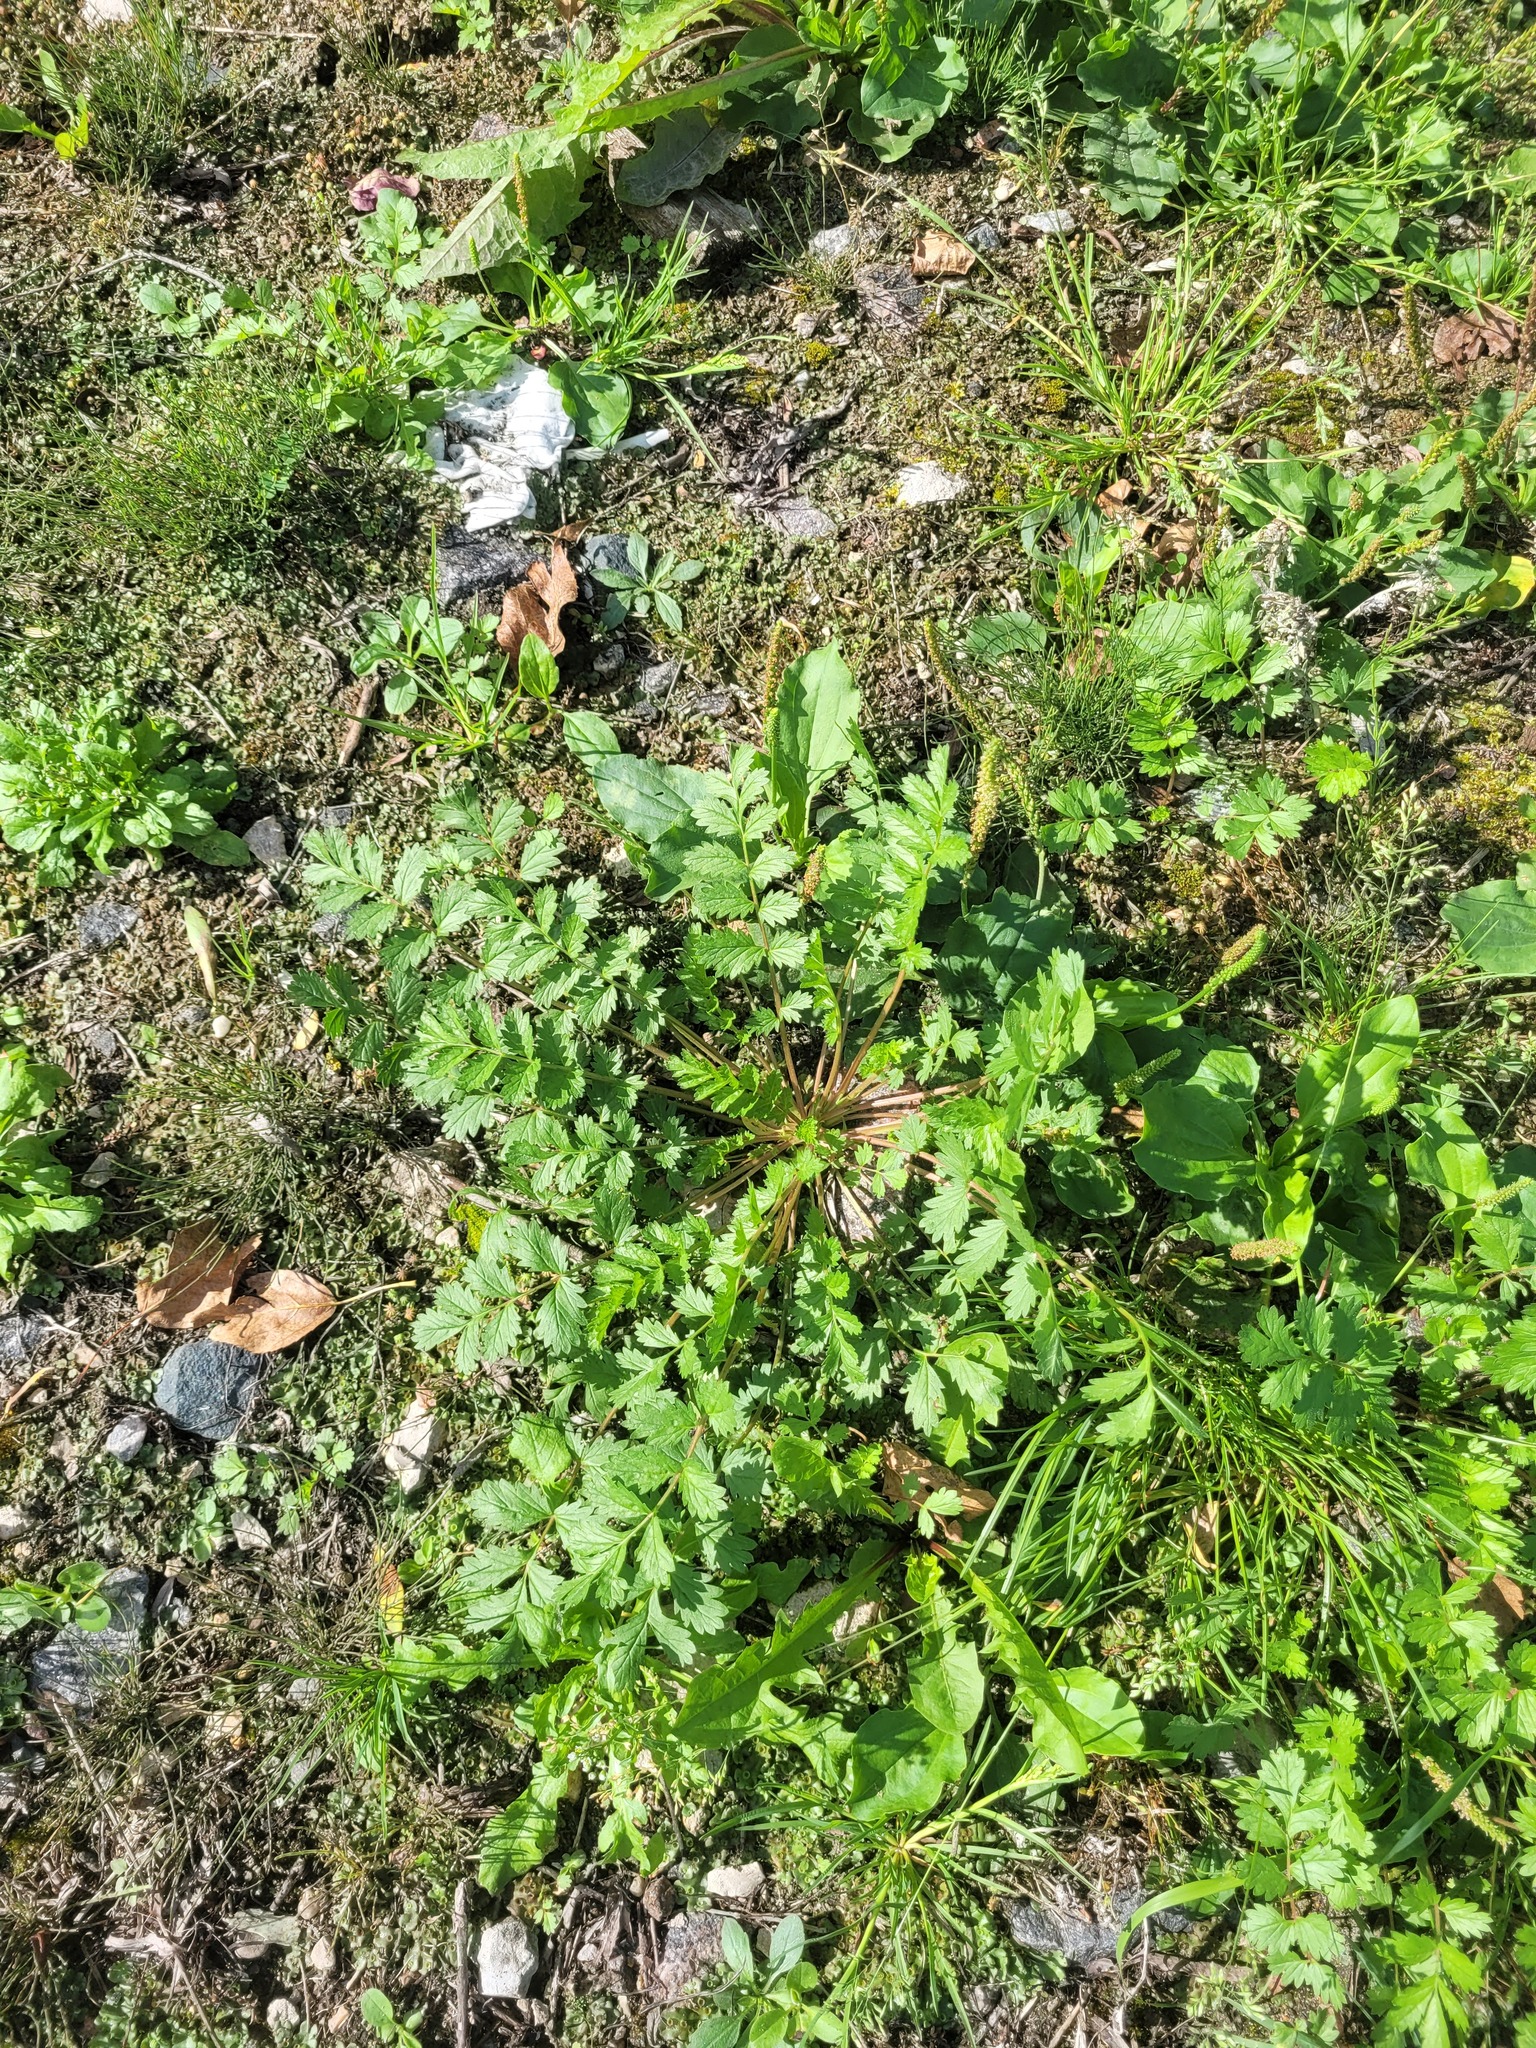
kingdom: Plantae
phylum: Tracheophyta
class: Magnoliopsida
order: Rosales
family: Rosaceae
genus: Potentilla
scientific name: Potentilla supina
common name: Prostrate cinquefoil
